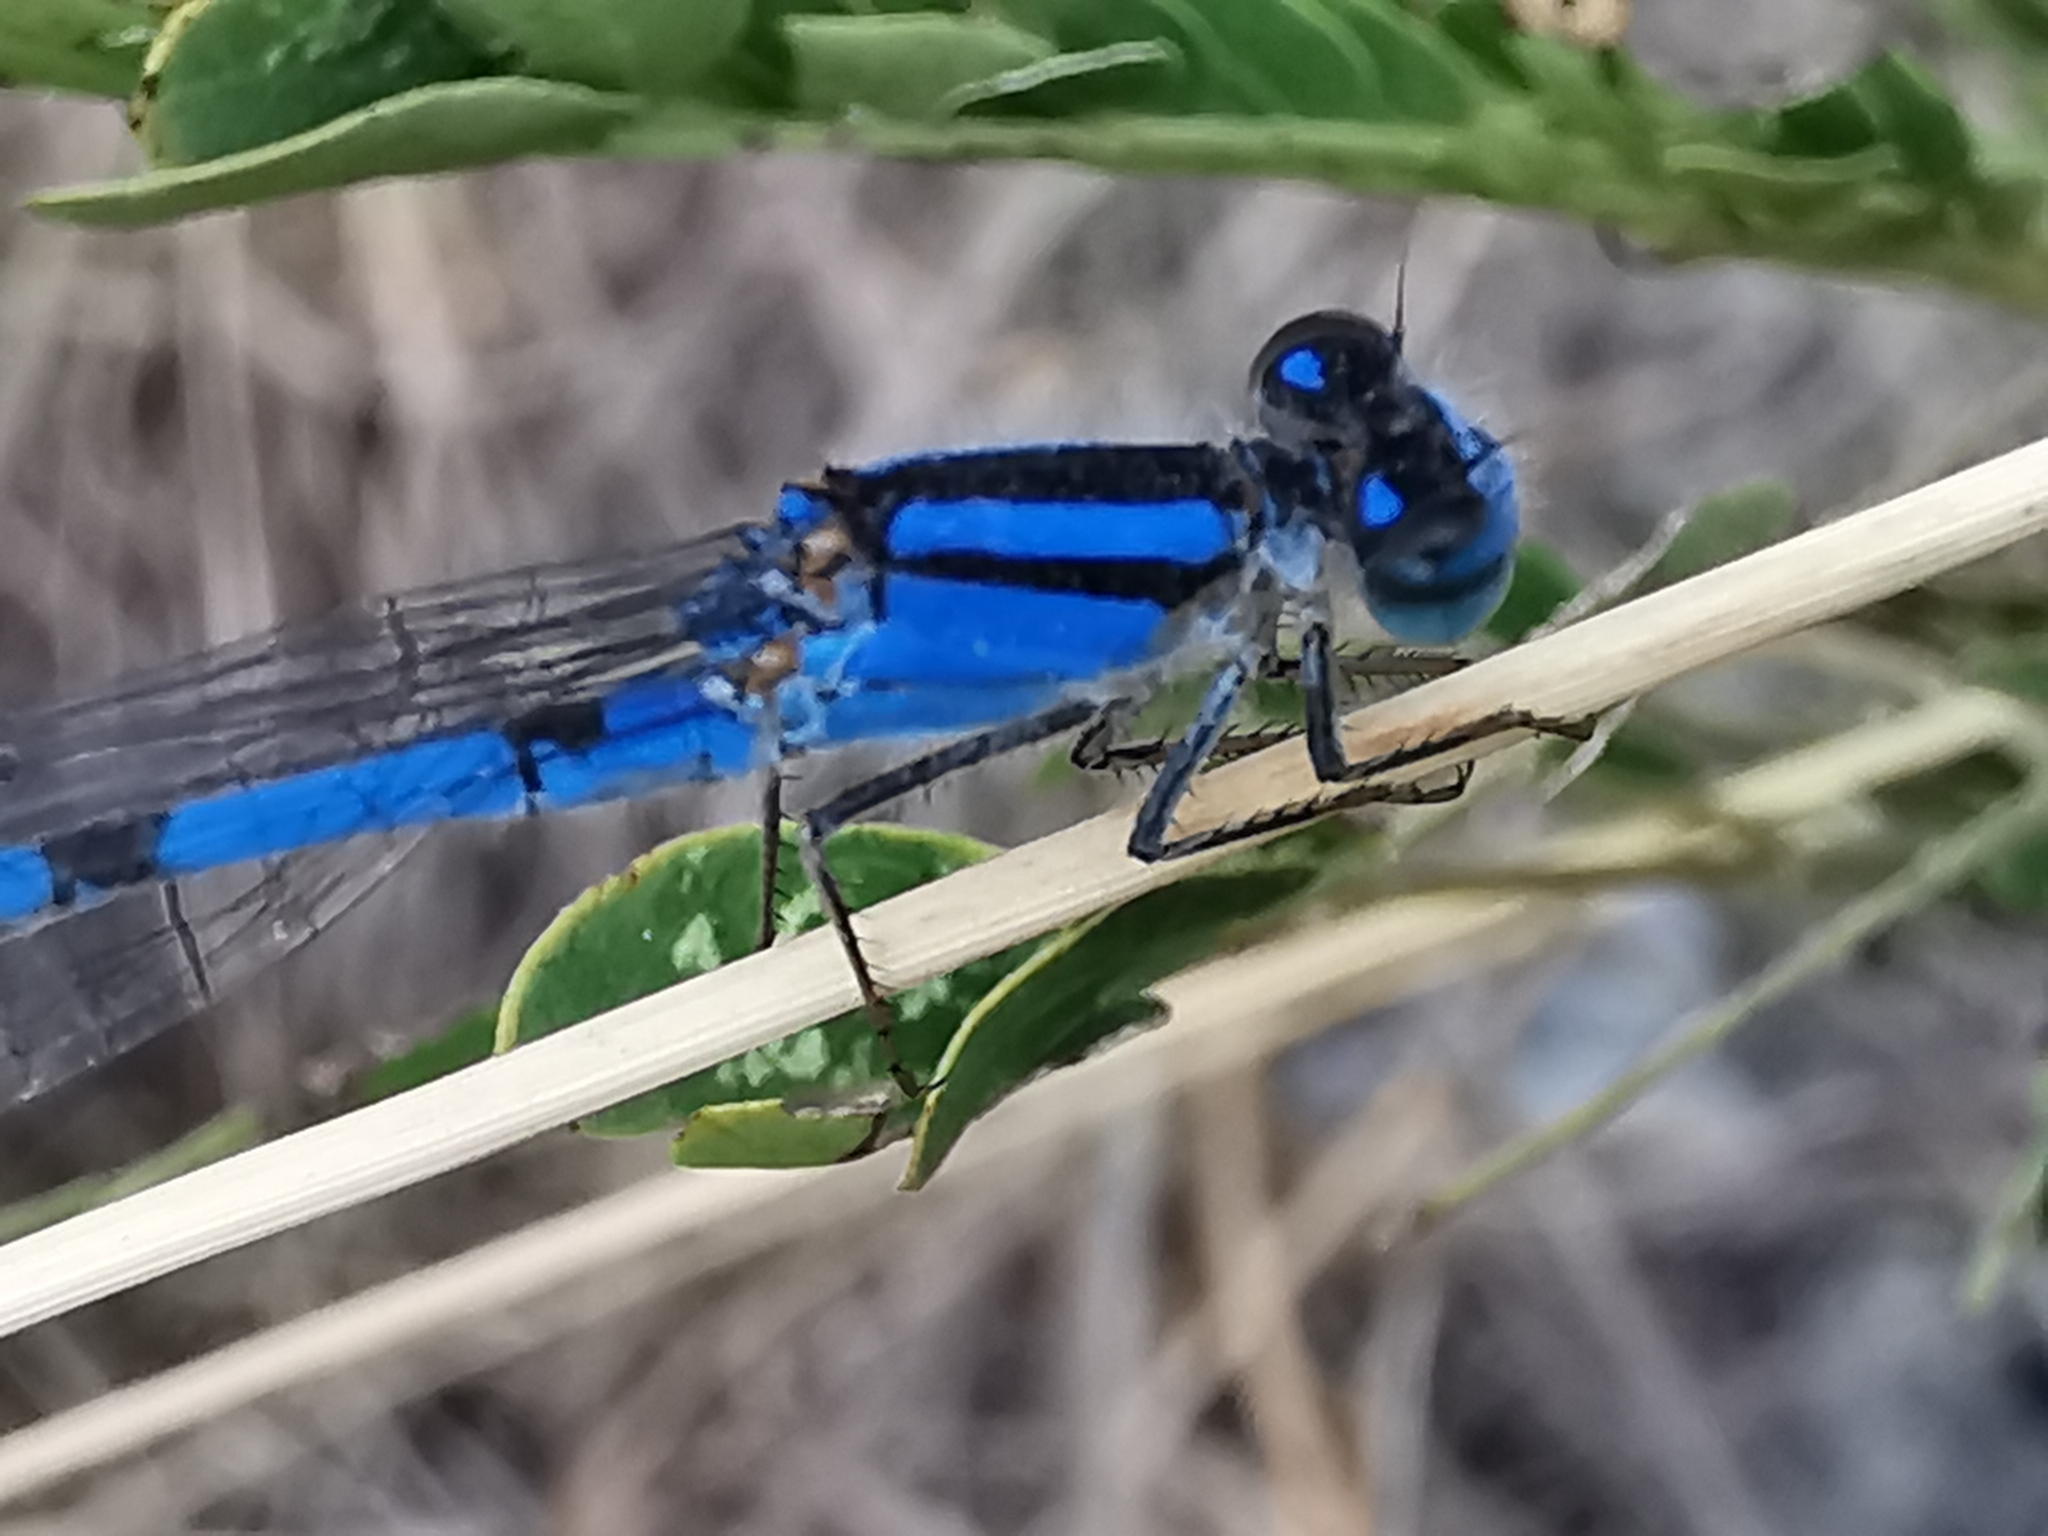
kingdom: Animalia
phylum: Arthropoda
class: Insecta
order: Odonata
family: Coenagrionidae
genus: Enallagma
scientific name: Enallagma civile
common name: Damselfly
